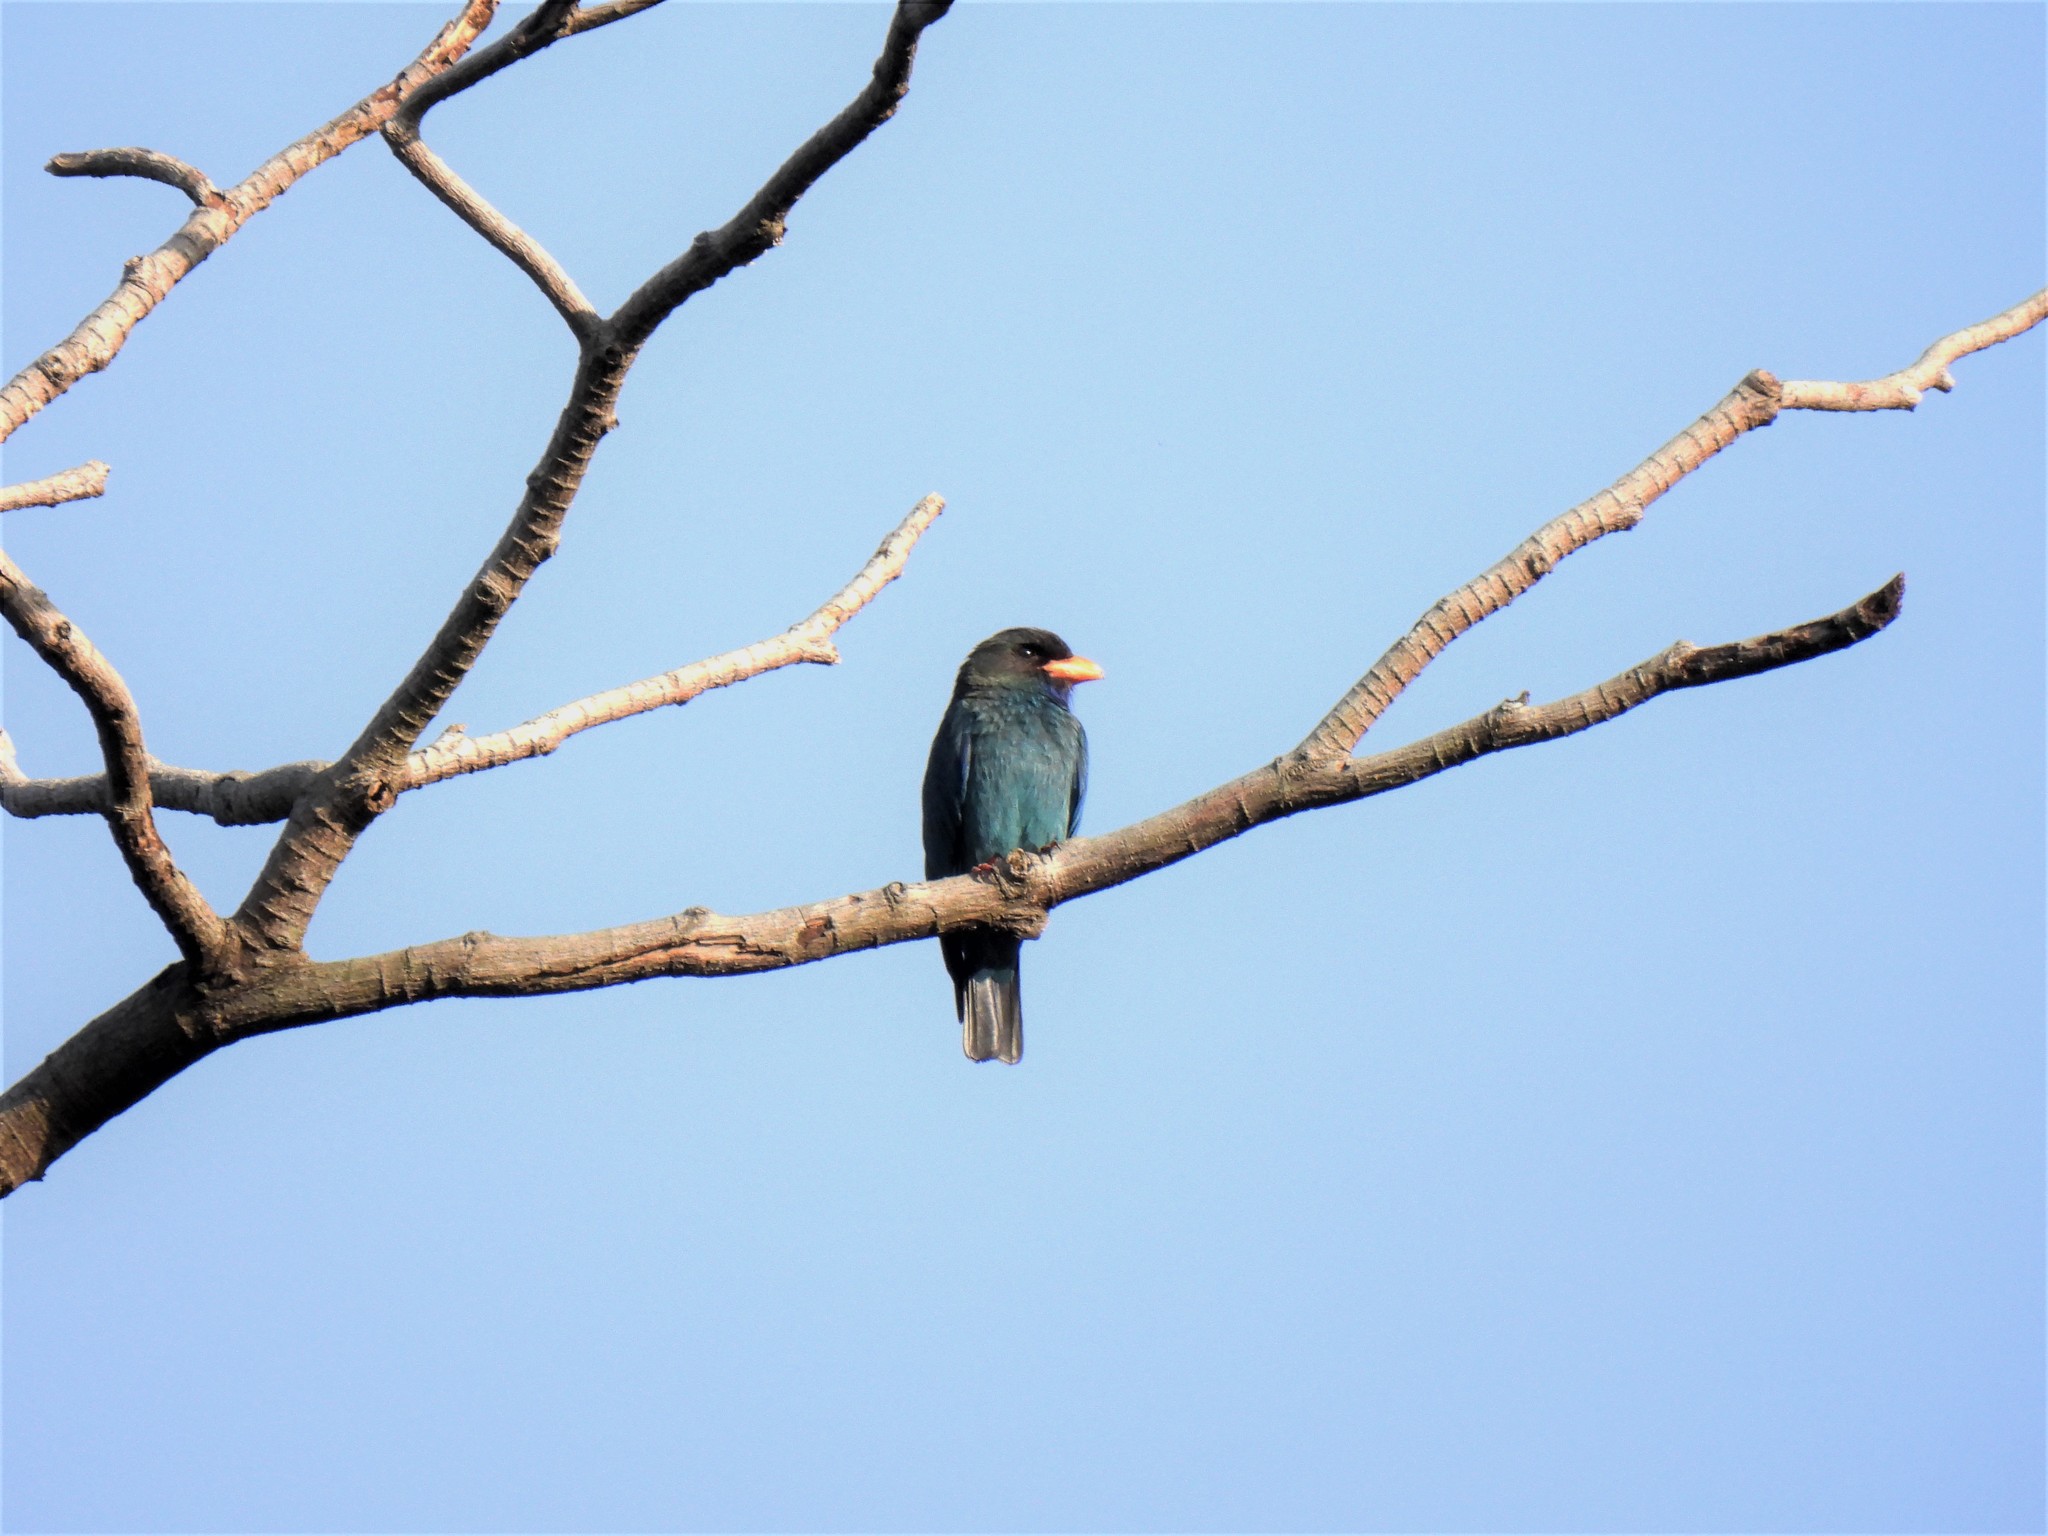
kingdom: Animalia
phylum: Chordata
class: Aves
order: Coraciiformes
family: Coraciidae
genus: Eurystomus
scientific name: Eurystomus orientalis
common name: Oriental dollarbird
